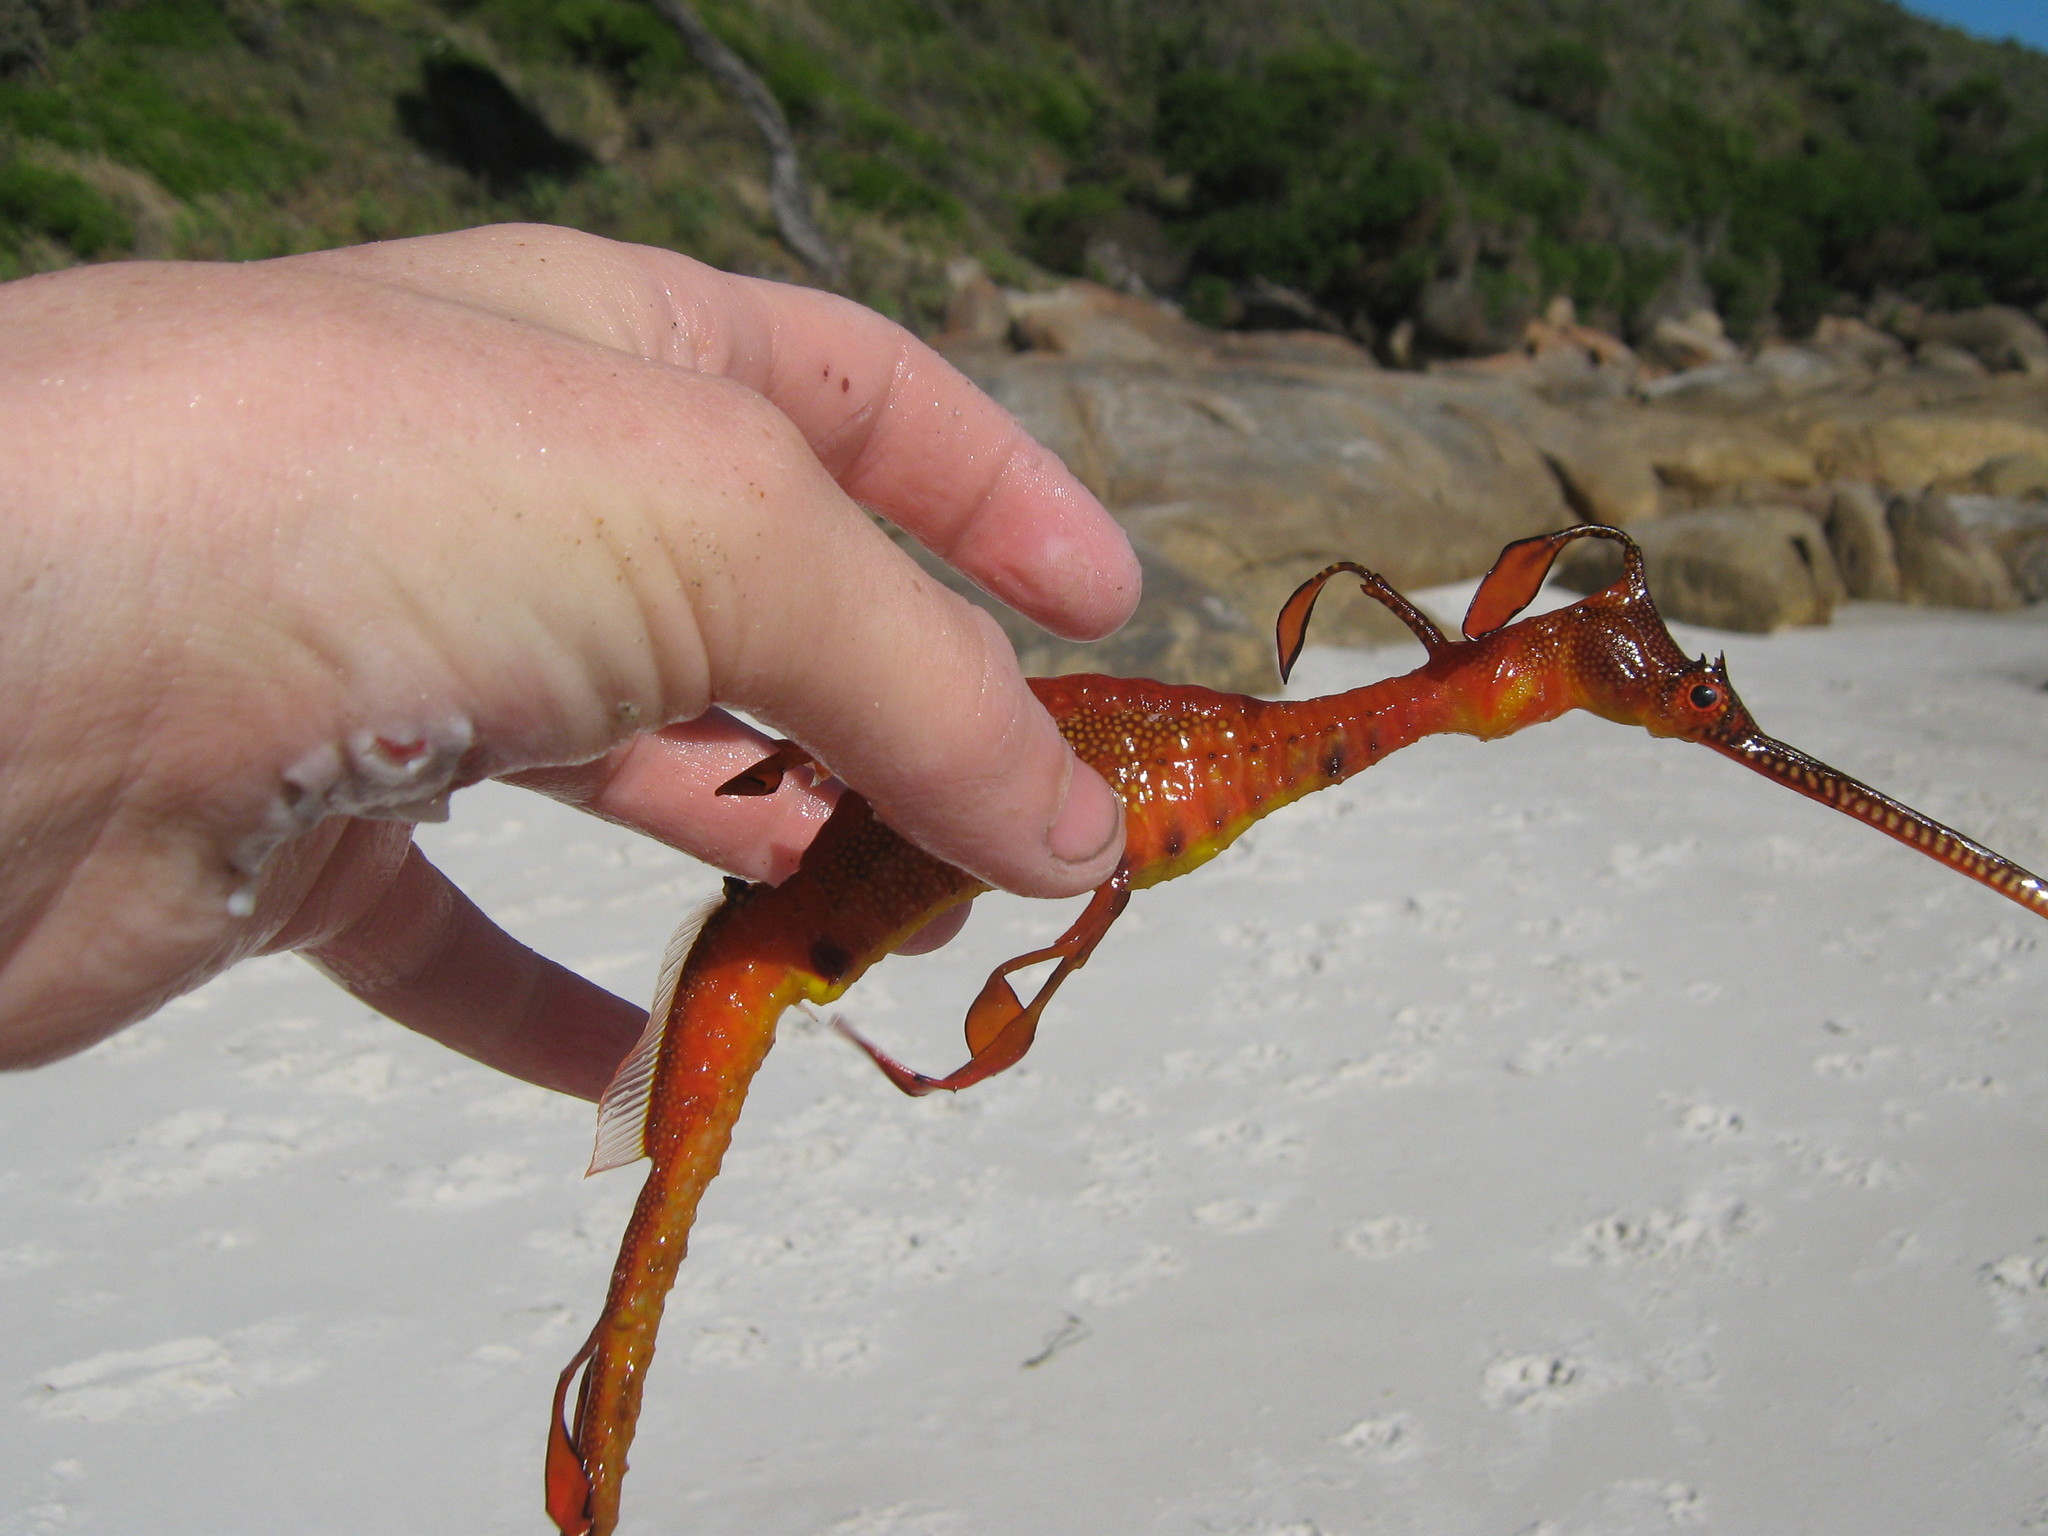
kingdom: Animalia
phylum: Chordata
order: Syngnathiformes
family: Syngnathidae
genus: Phyllopteryx
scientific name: Phyllopteryx taeniolatus
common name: Common seadragon
